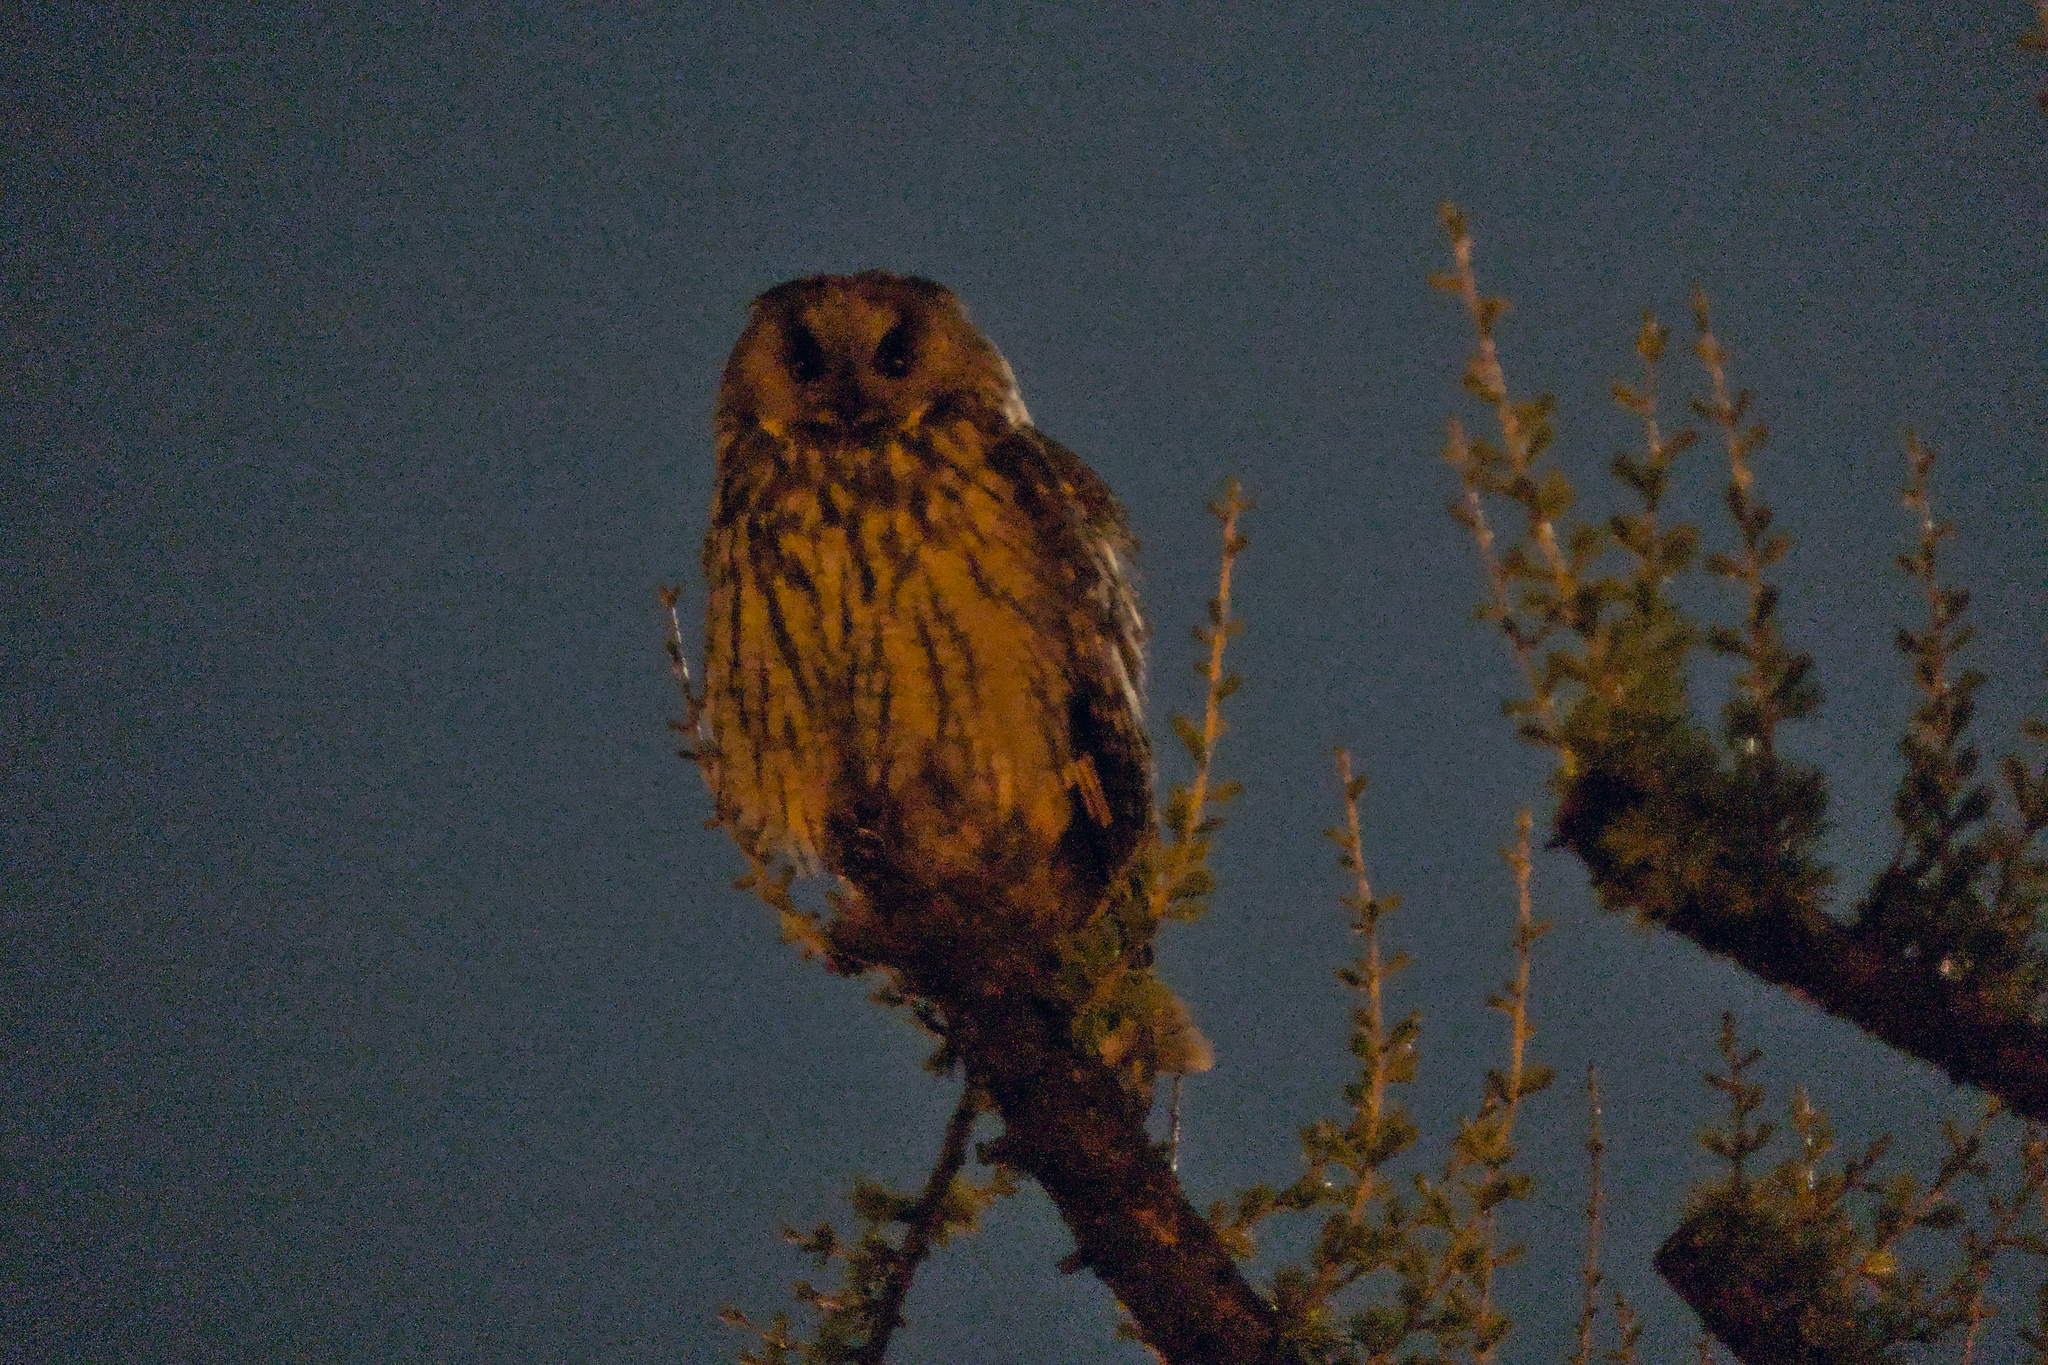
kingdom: Animalia
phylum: Chordata
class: Aves
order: Strigiformes
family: Strigidae
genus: Asio
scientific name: Asio otus
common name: Long-eared owl
